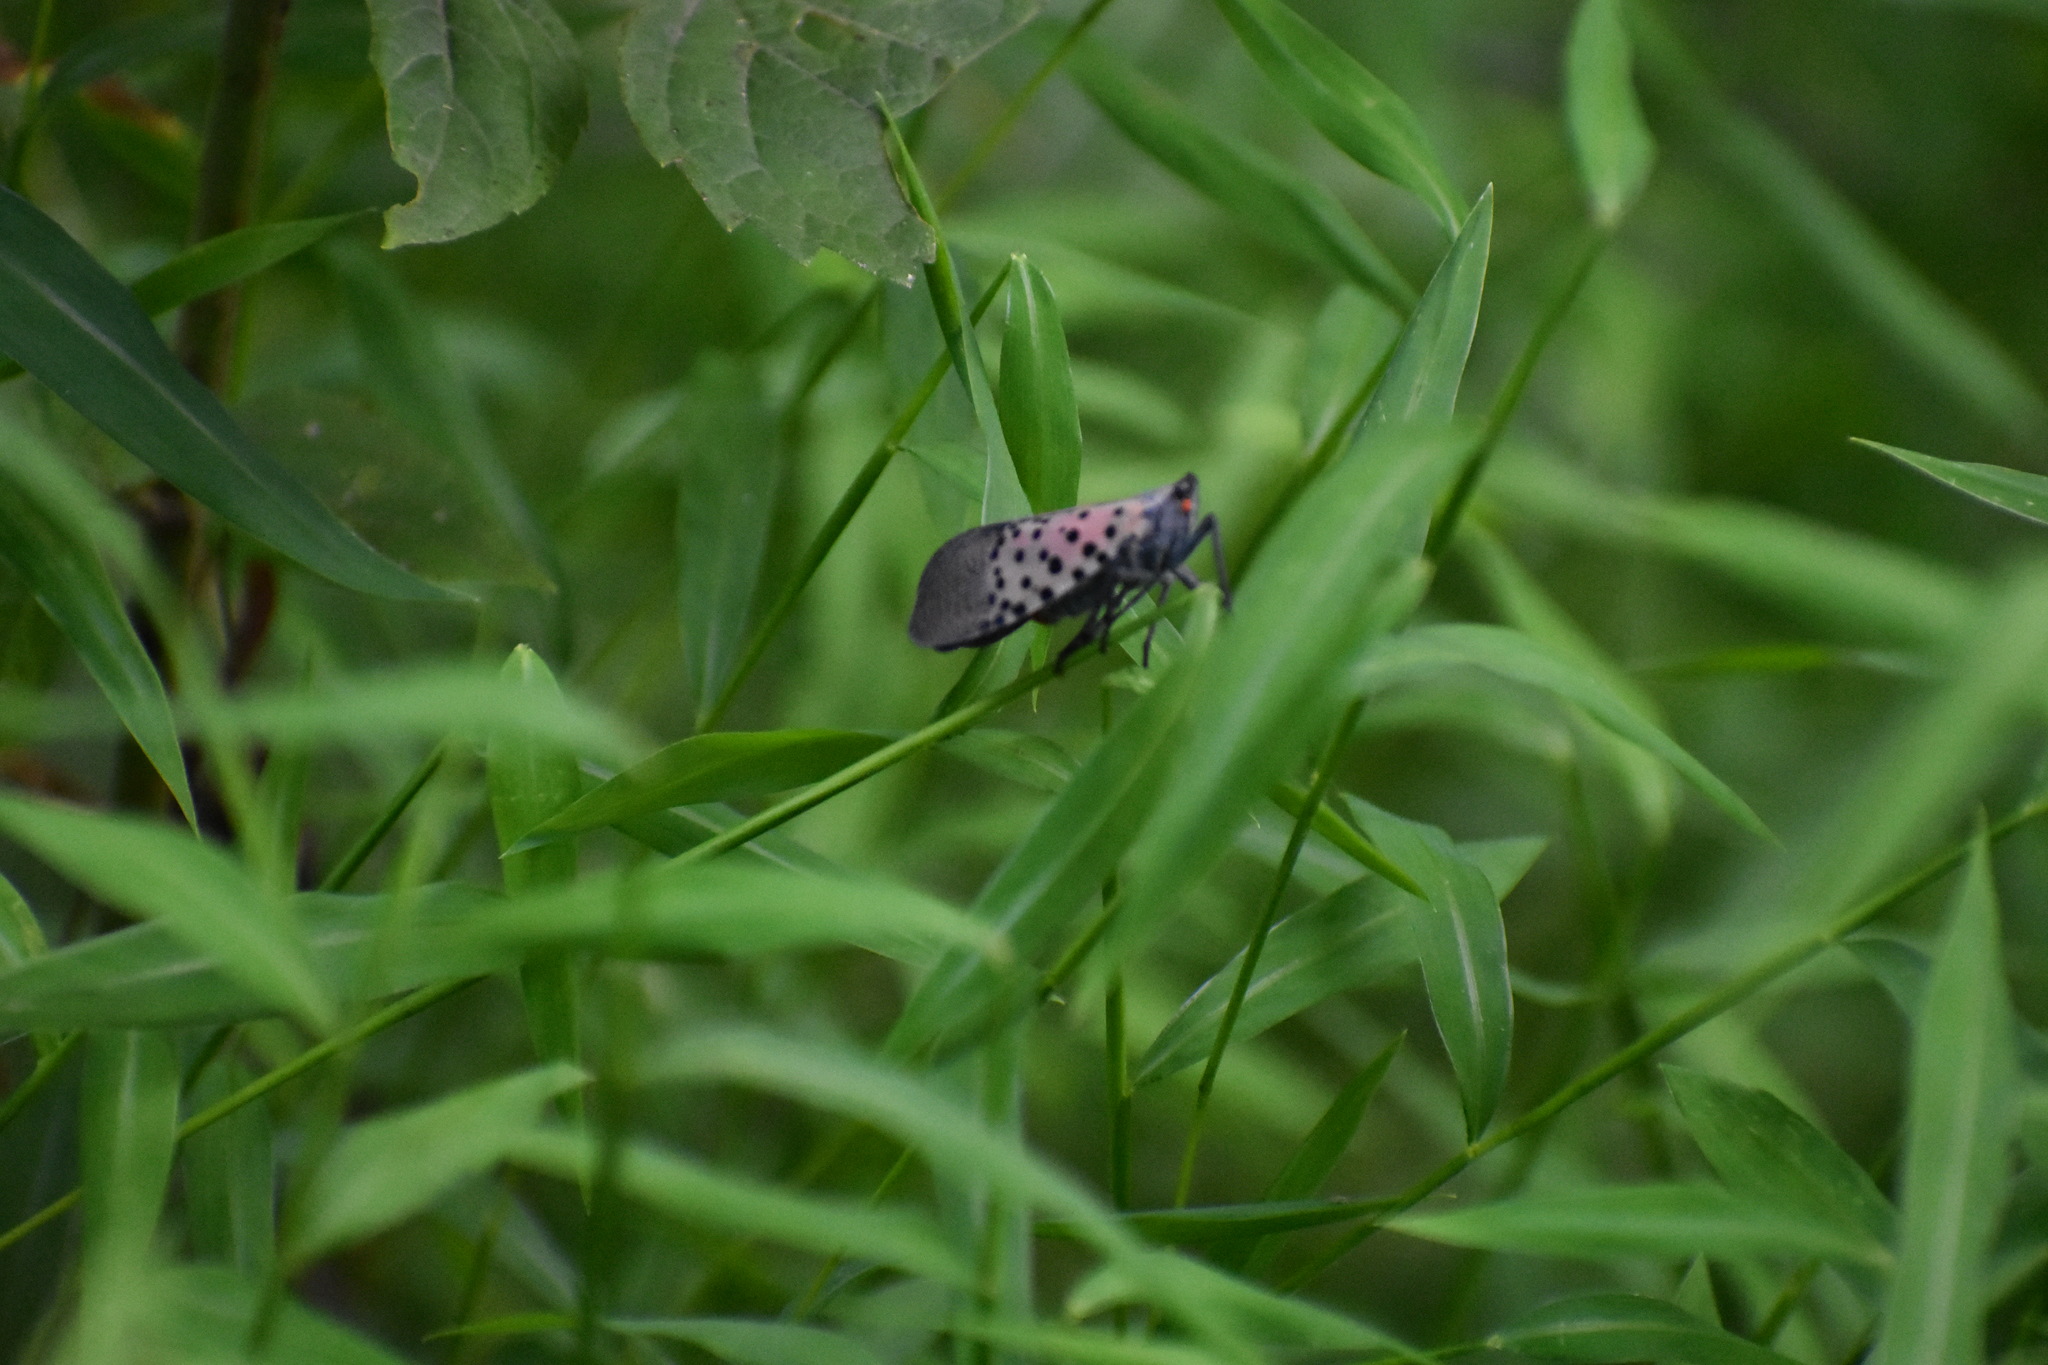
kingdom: Animalia
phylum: Arthropoda
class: Insecta
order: Hemiptera
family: Fulgoridae
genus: Lycorma
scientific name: Lycorma delicatula
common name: Spotted lanternfly
